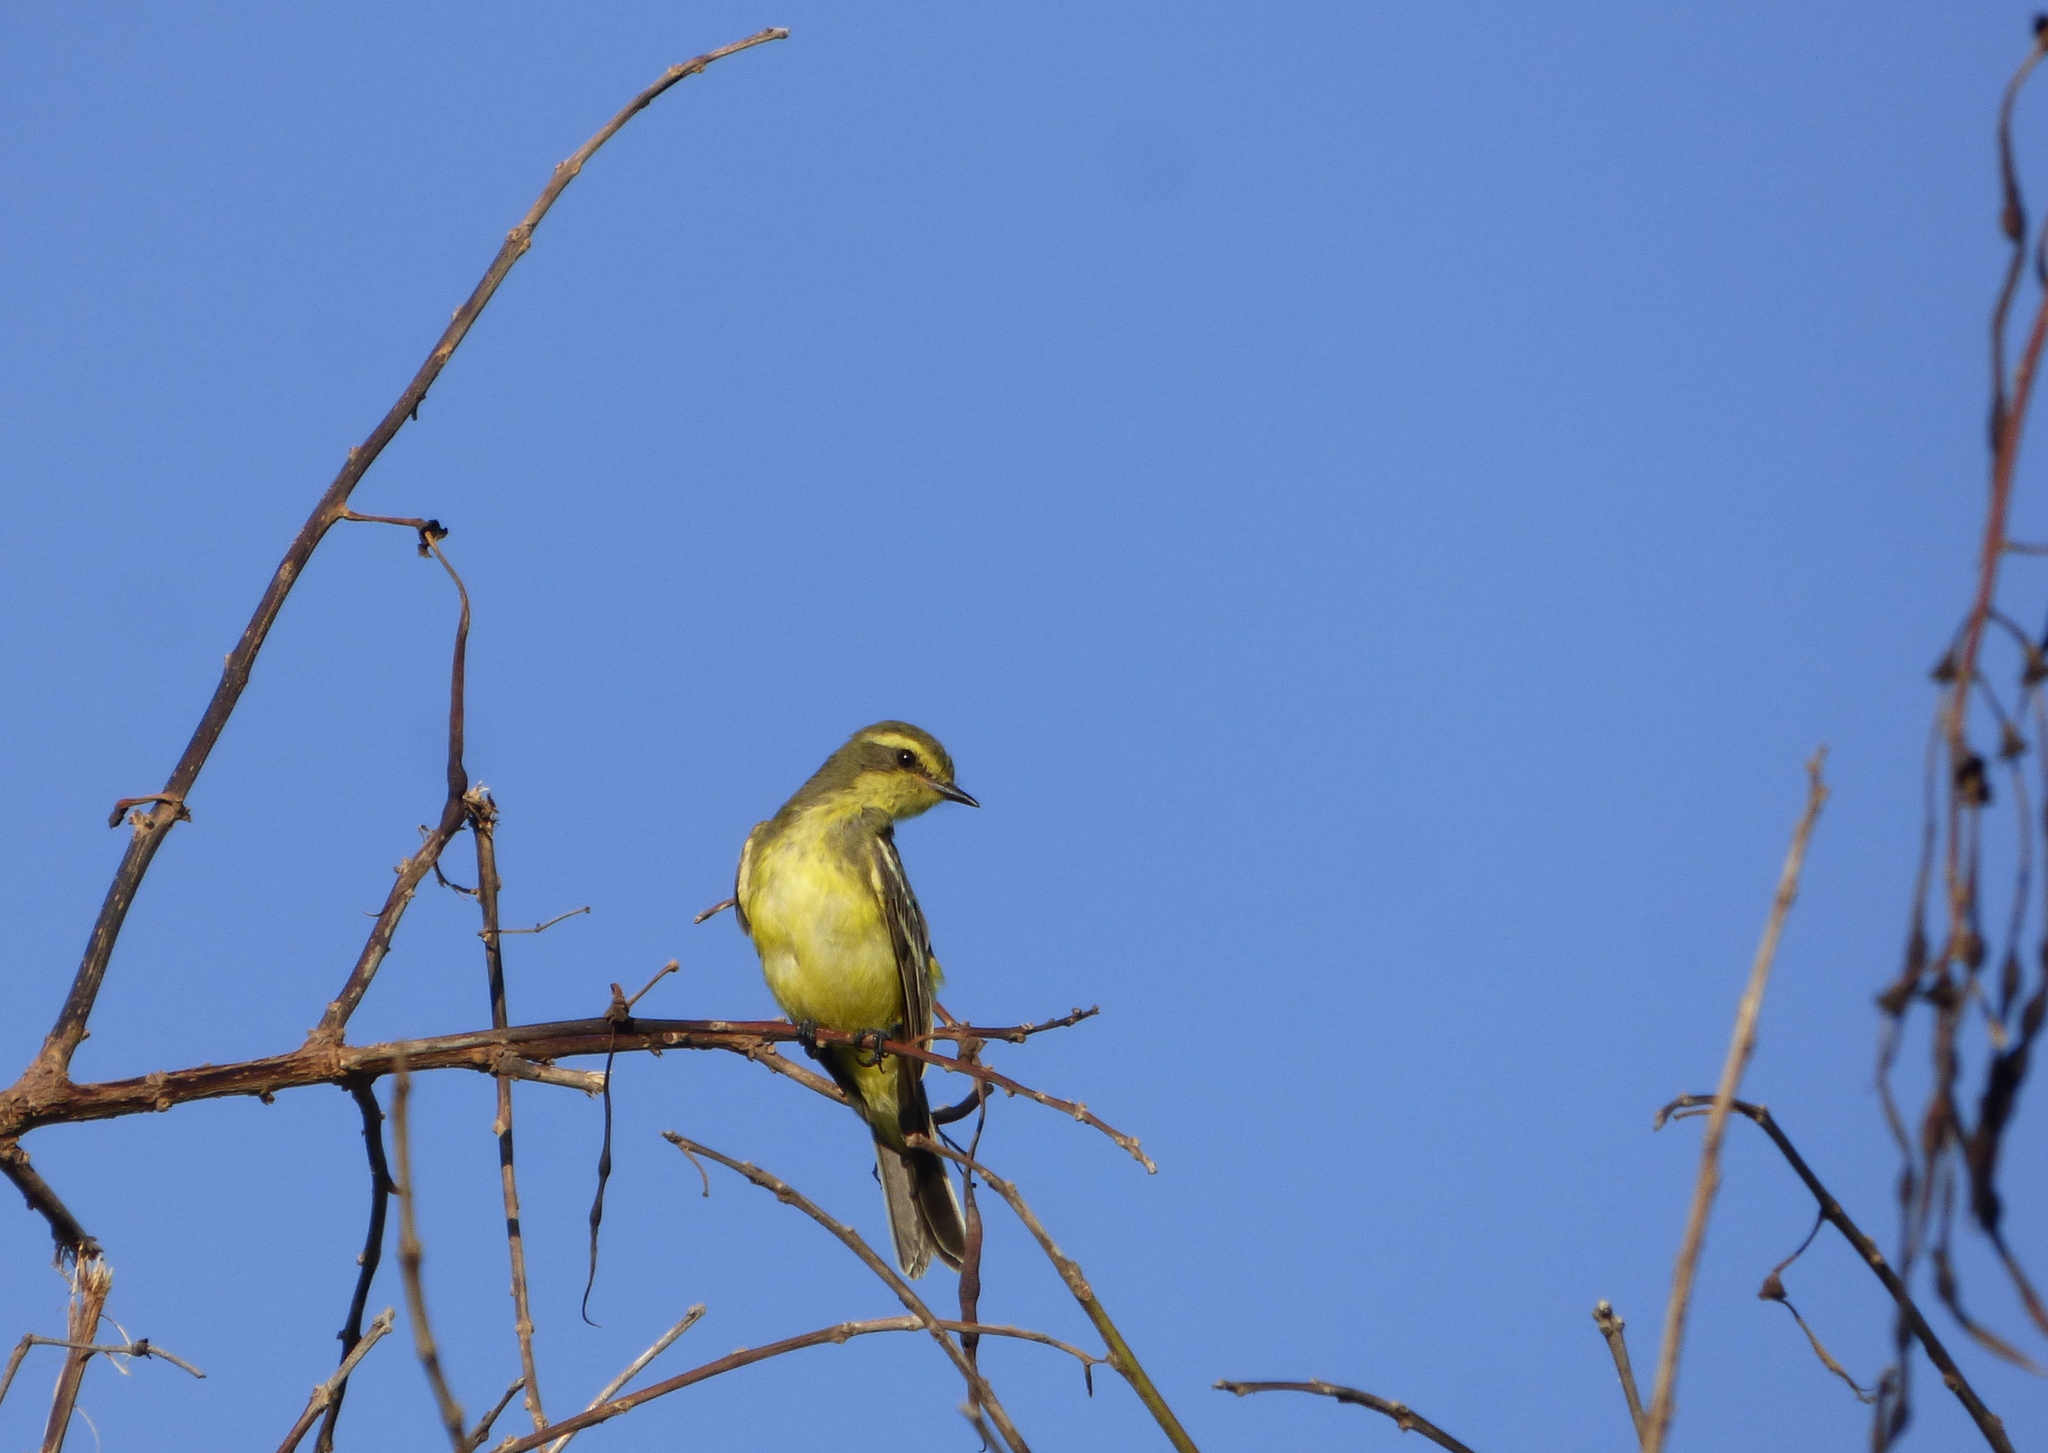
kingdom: Animalia
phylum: Chordata
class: Aves
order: Passeriformes
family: Tyrannidae
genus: Satrapa
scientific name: Satrapa icterophrys
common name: Yellow-browed tyrant
